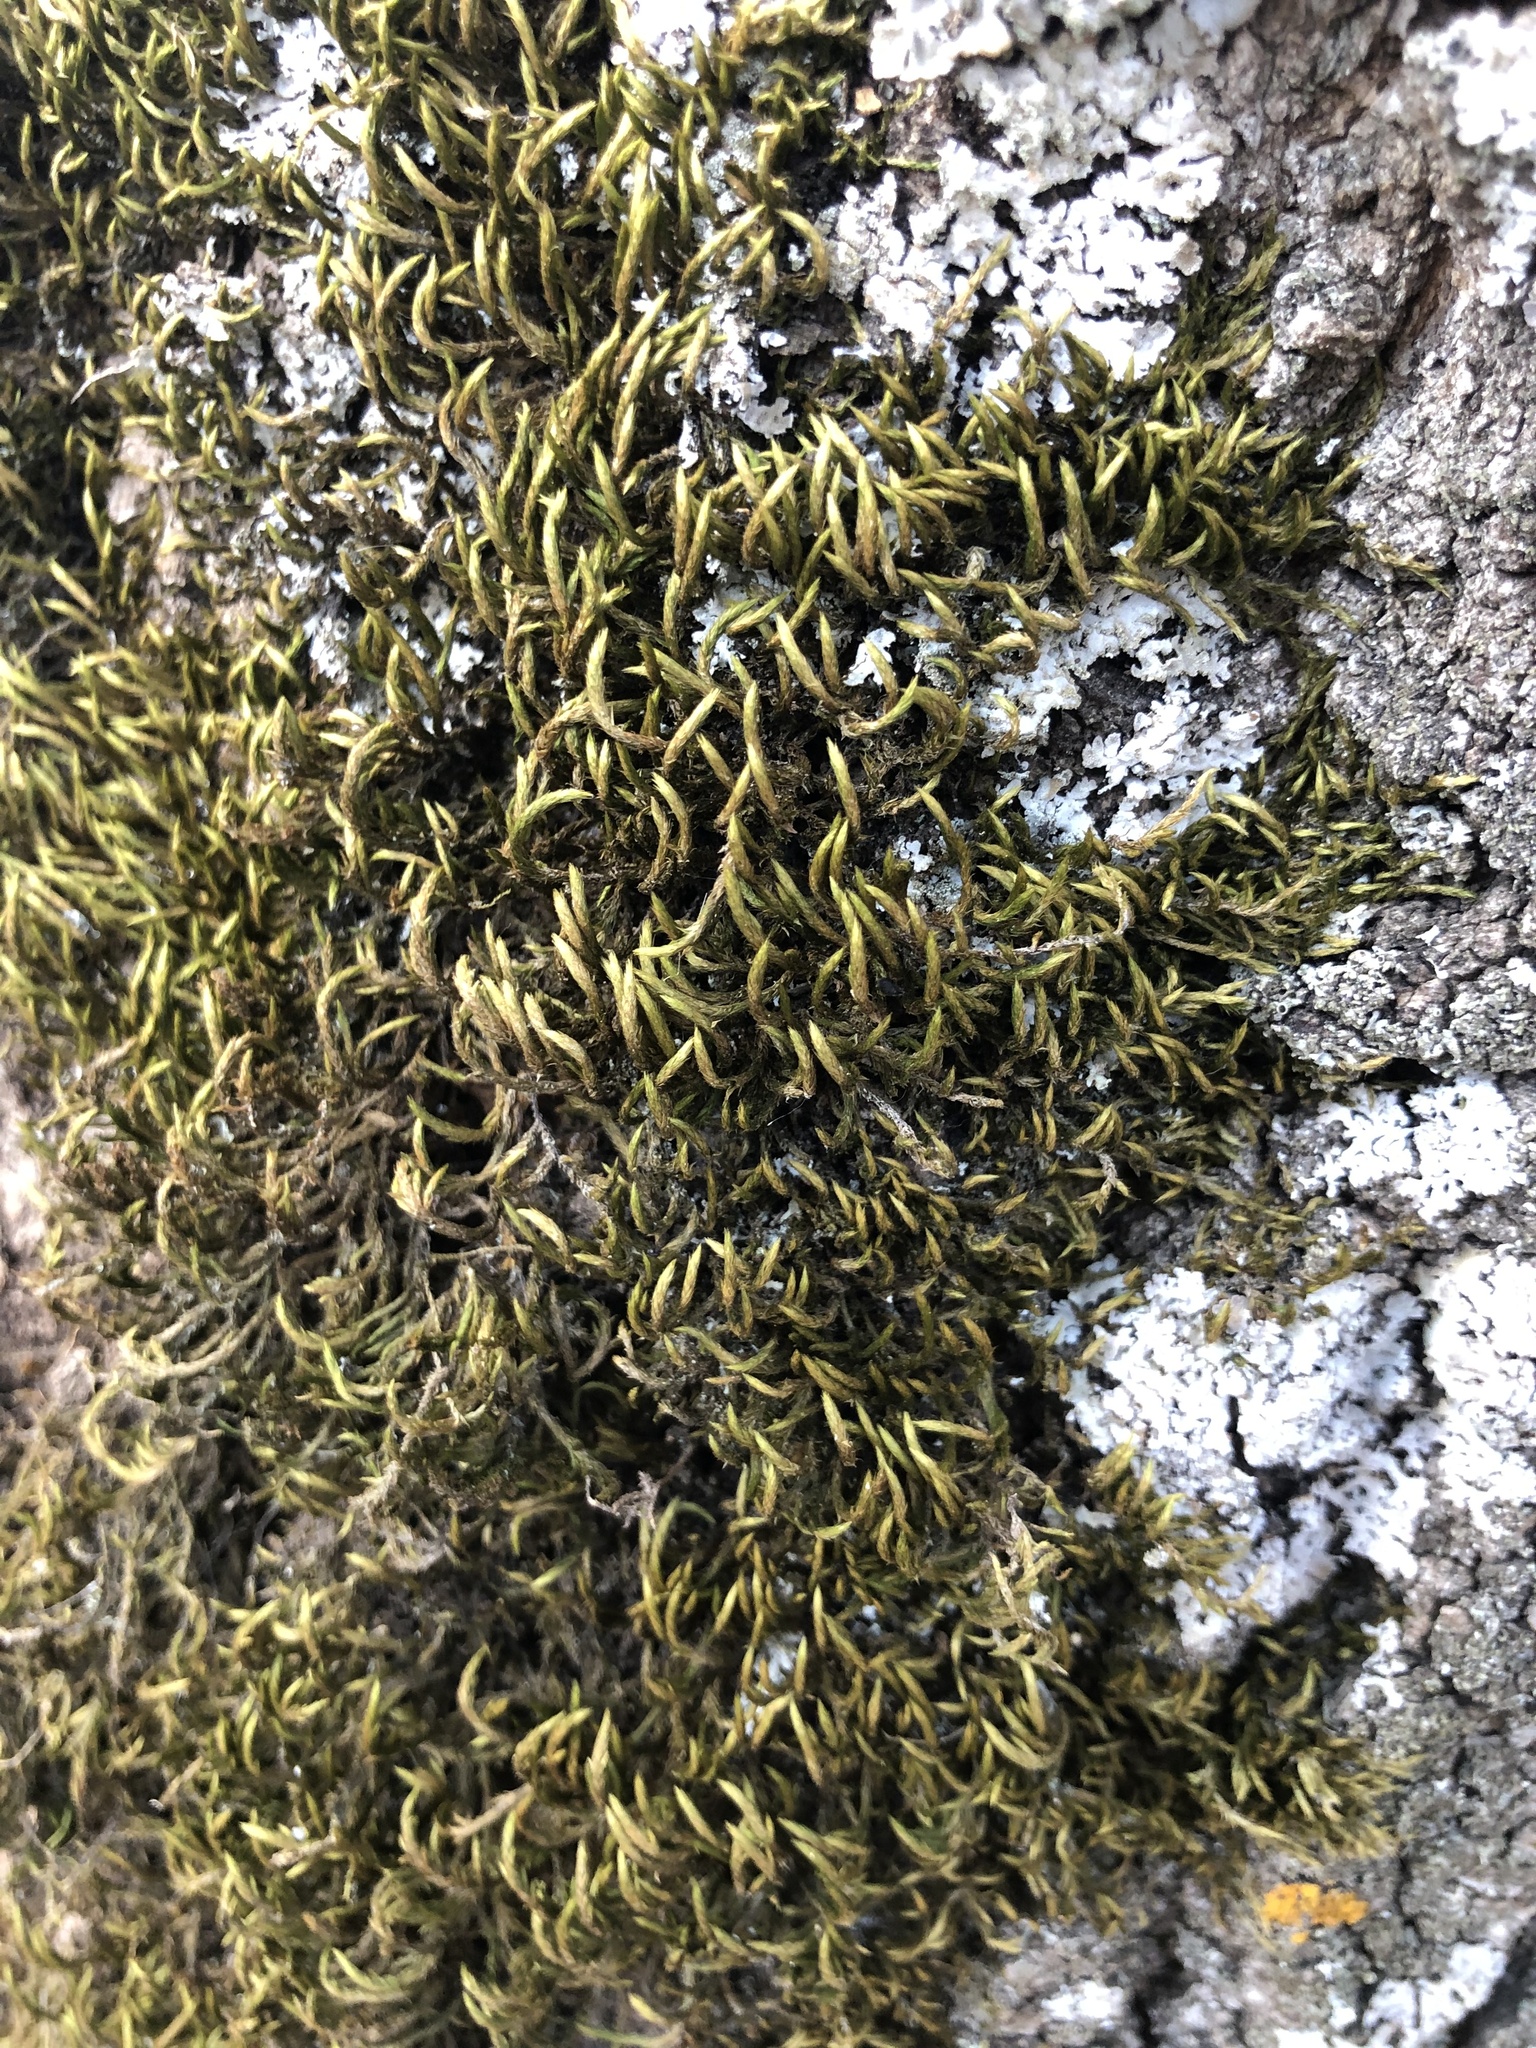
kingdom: Plantae
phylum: Bryophyta
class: Bryopsida
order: Hypnales
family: Leucodontaceae
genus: Leucodon
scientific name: Leucodon sciuroides
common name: Squirrel-tail moss
